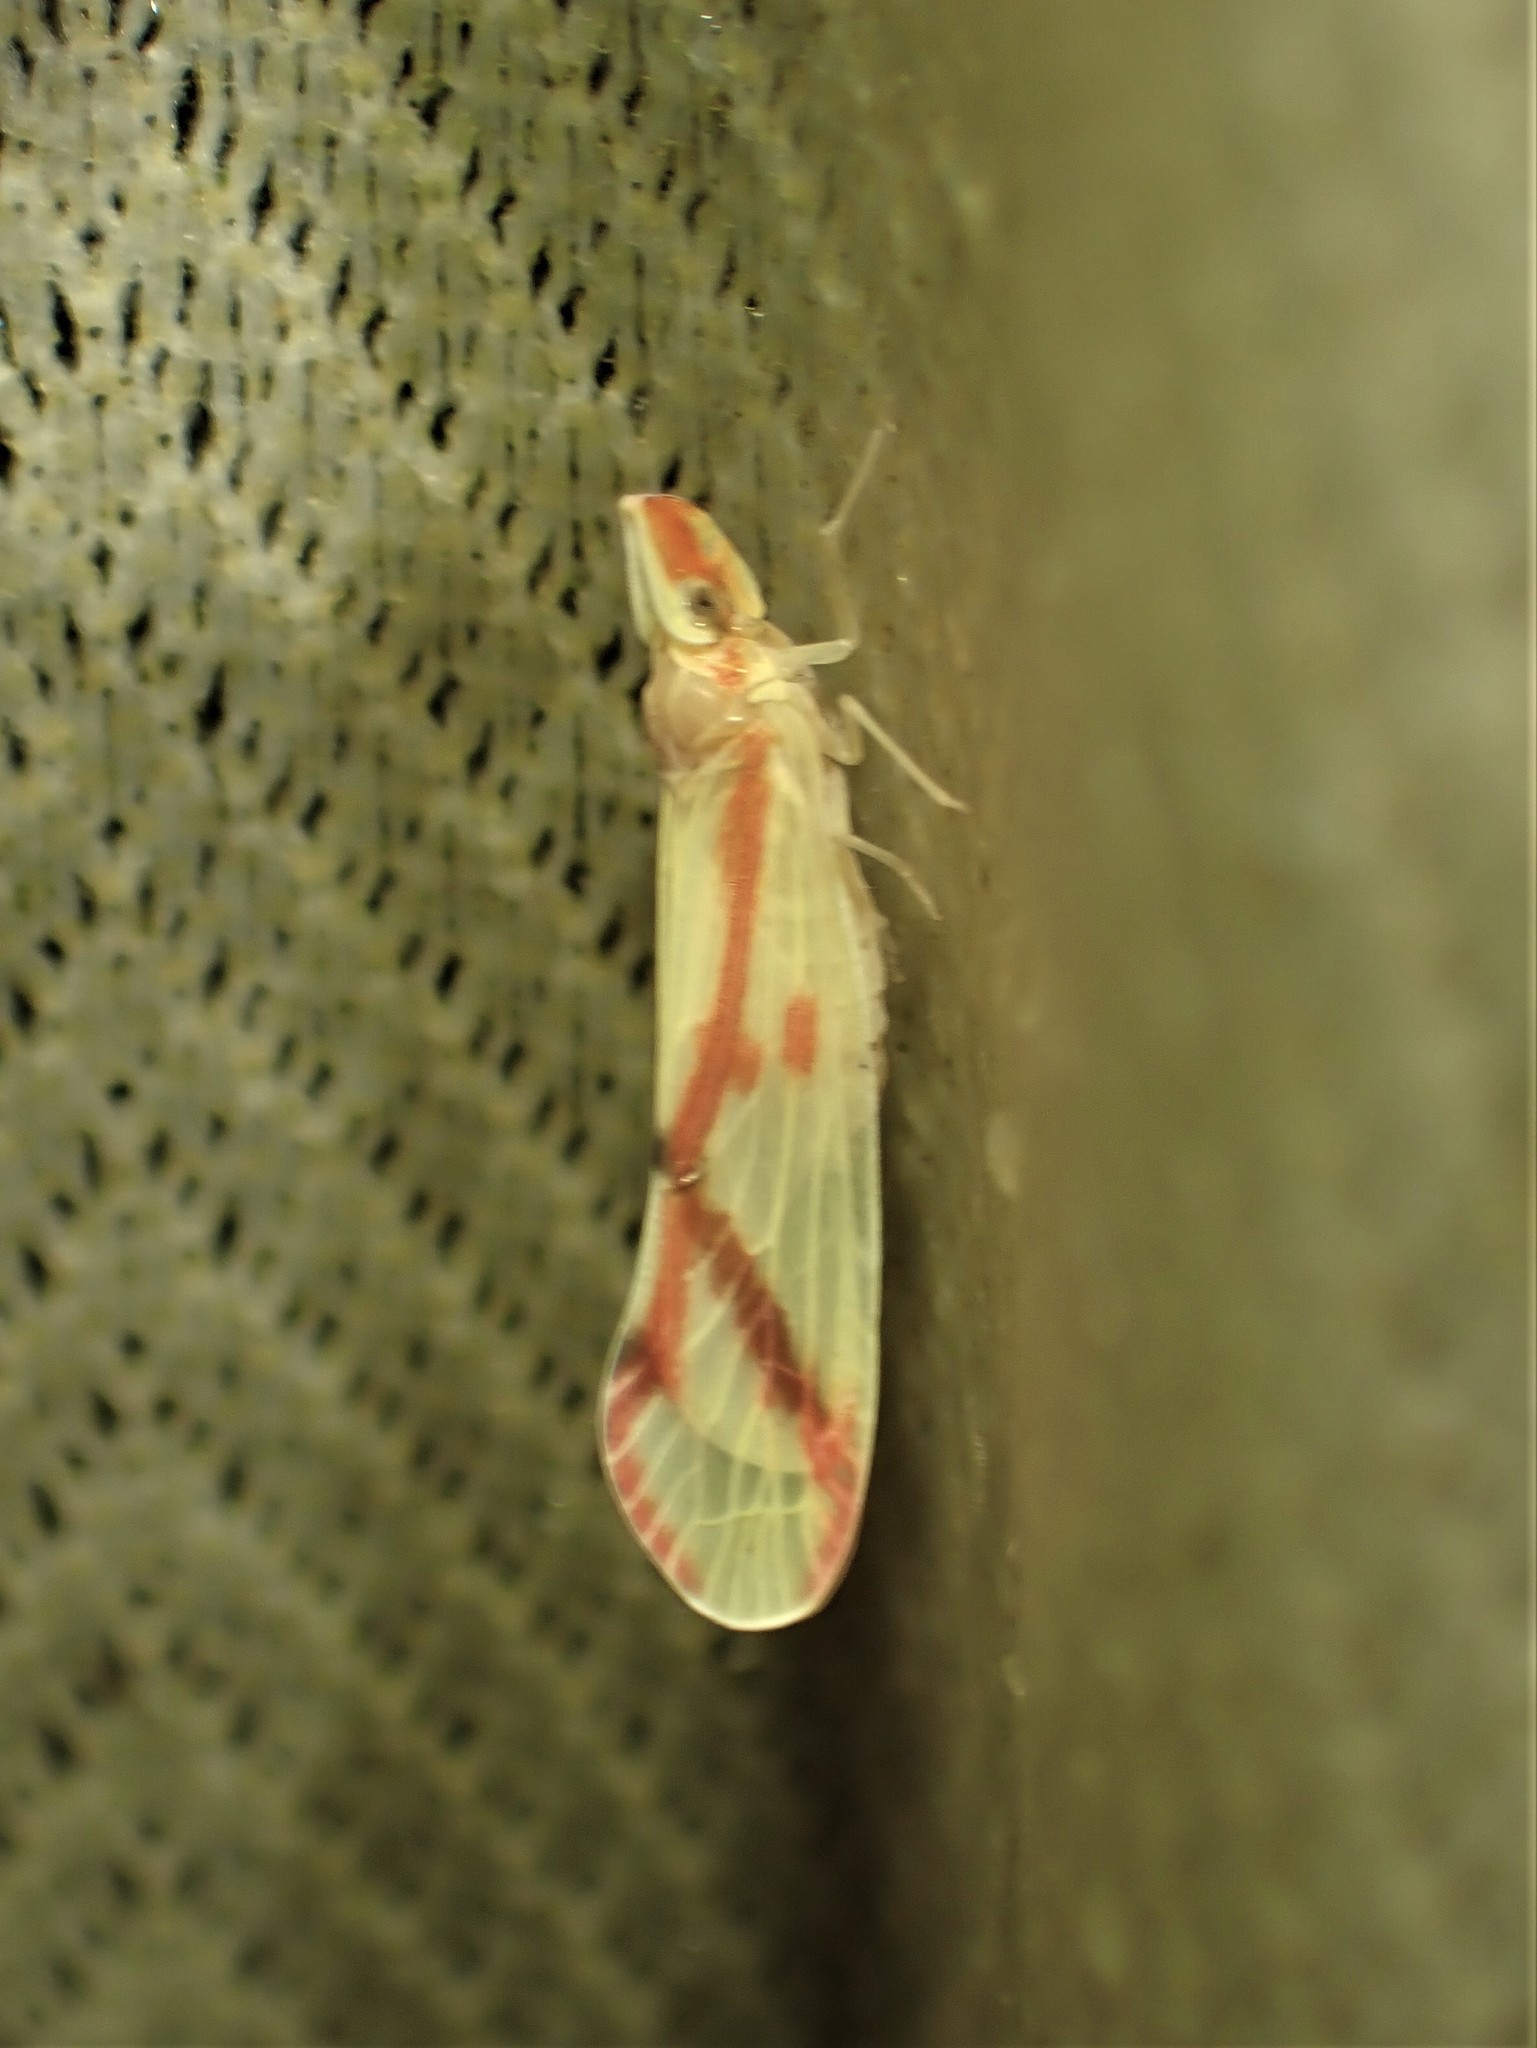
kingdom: Animalia
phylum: Arthropoda
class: Insecta
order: Hemiptera
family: Derbidae
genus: Otiocerus
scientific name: Otiocerus coquebertii
